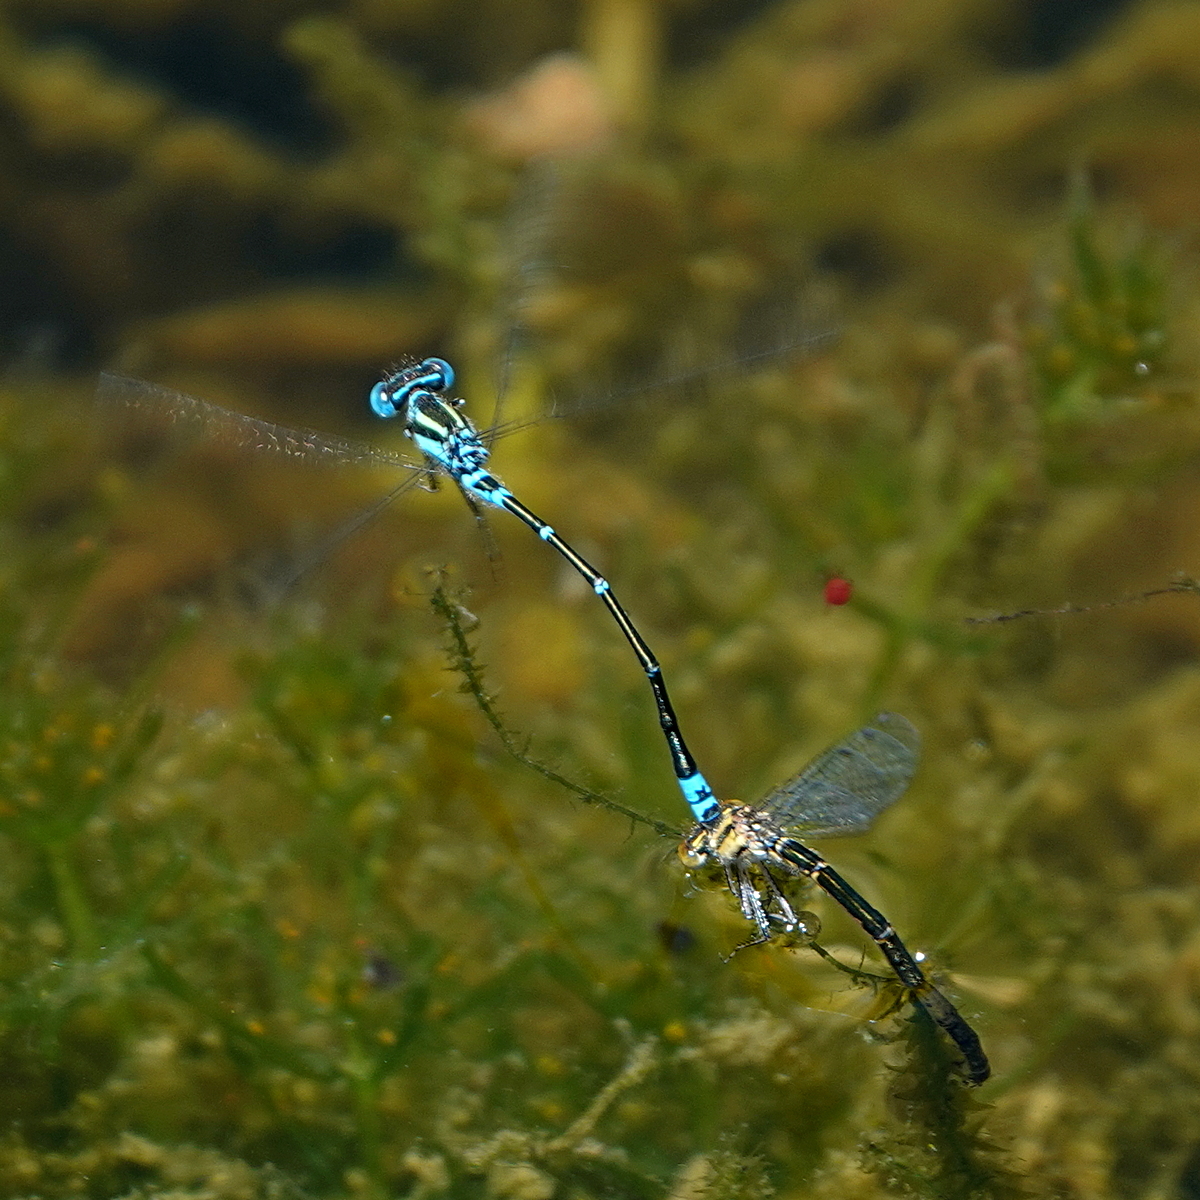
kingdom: Animalia
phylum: Arthropoda
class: Insecta
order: Odonata
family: Coenagrionidae
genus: Austroagrion
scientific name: Austroagrion watsoni
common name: Eastern billabongfly
